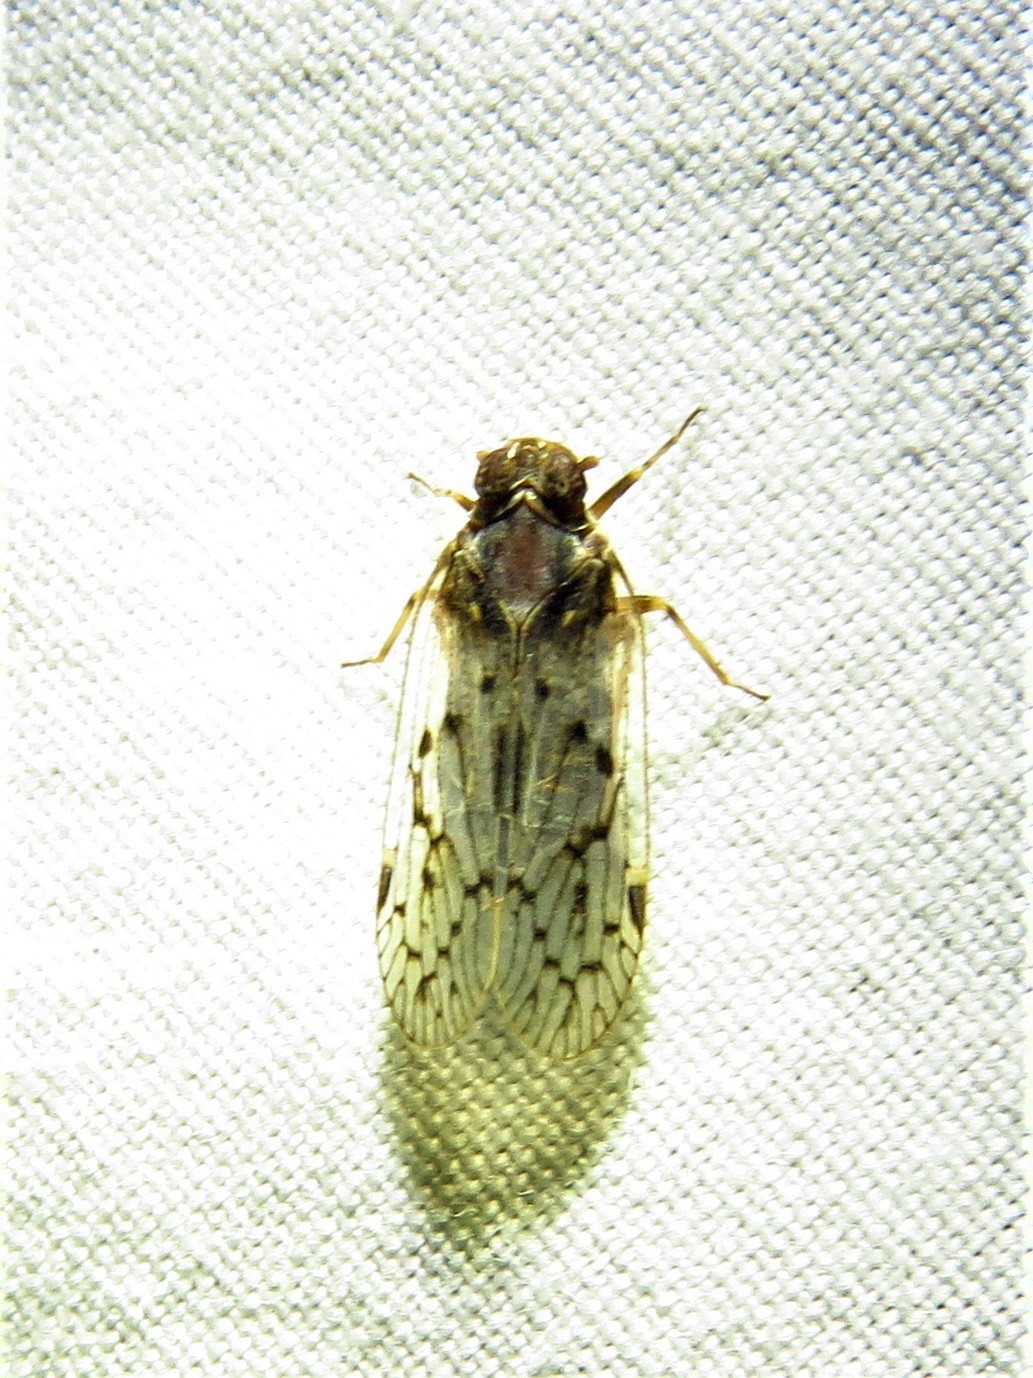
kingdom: Animalia
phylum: Arthropoda
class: Insecta
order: Hemiptera
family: Cixiidae
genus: Melanoliarus
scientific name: Melanoliarus aridus
